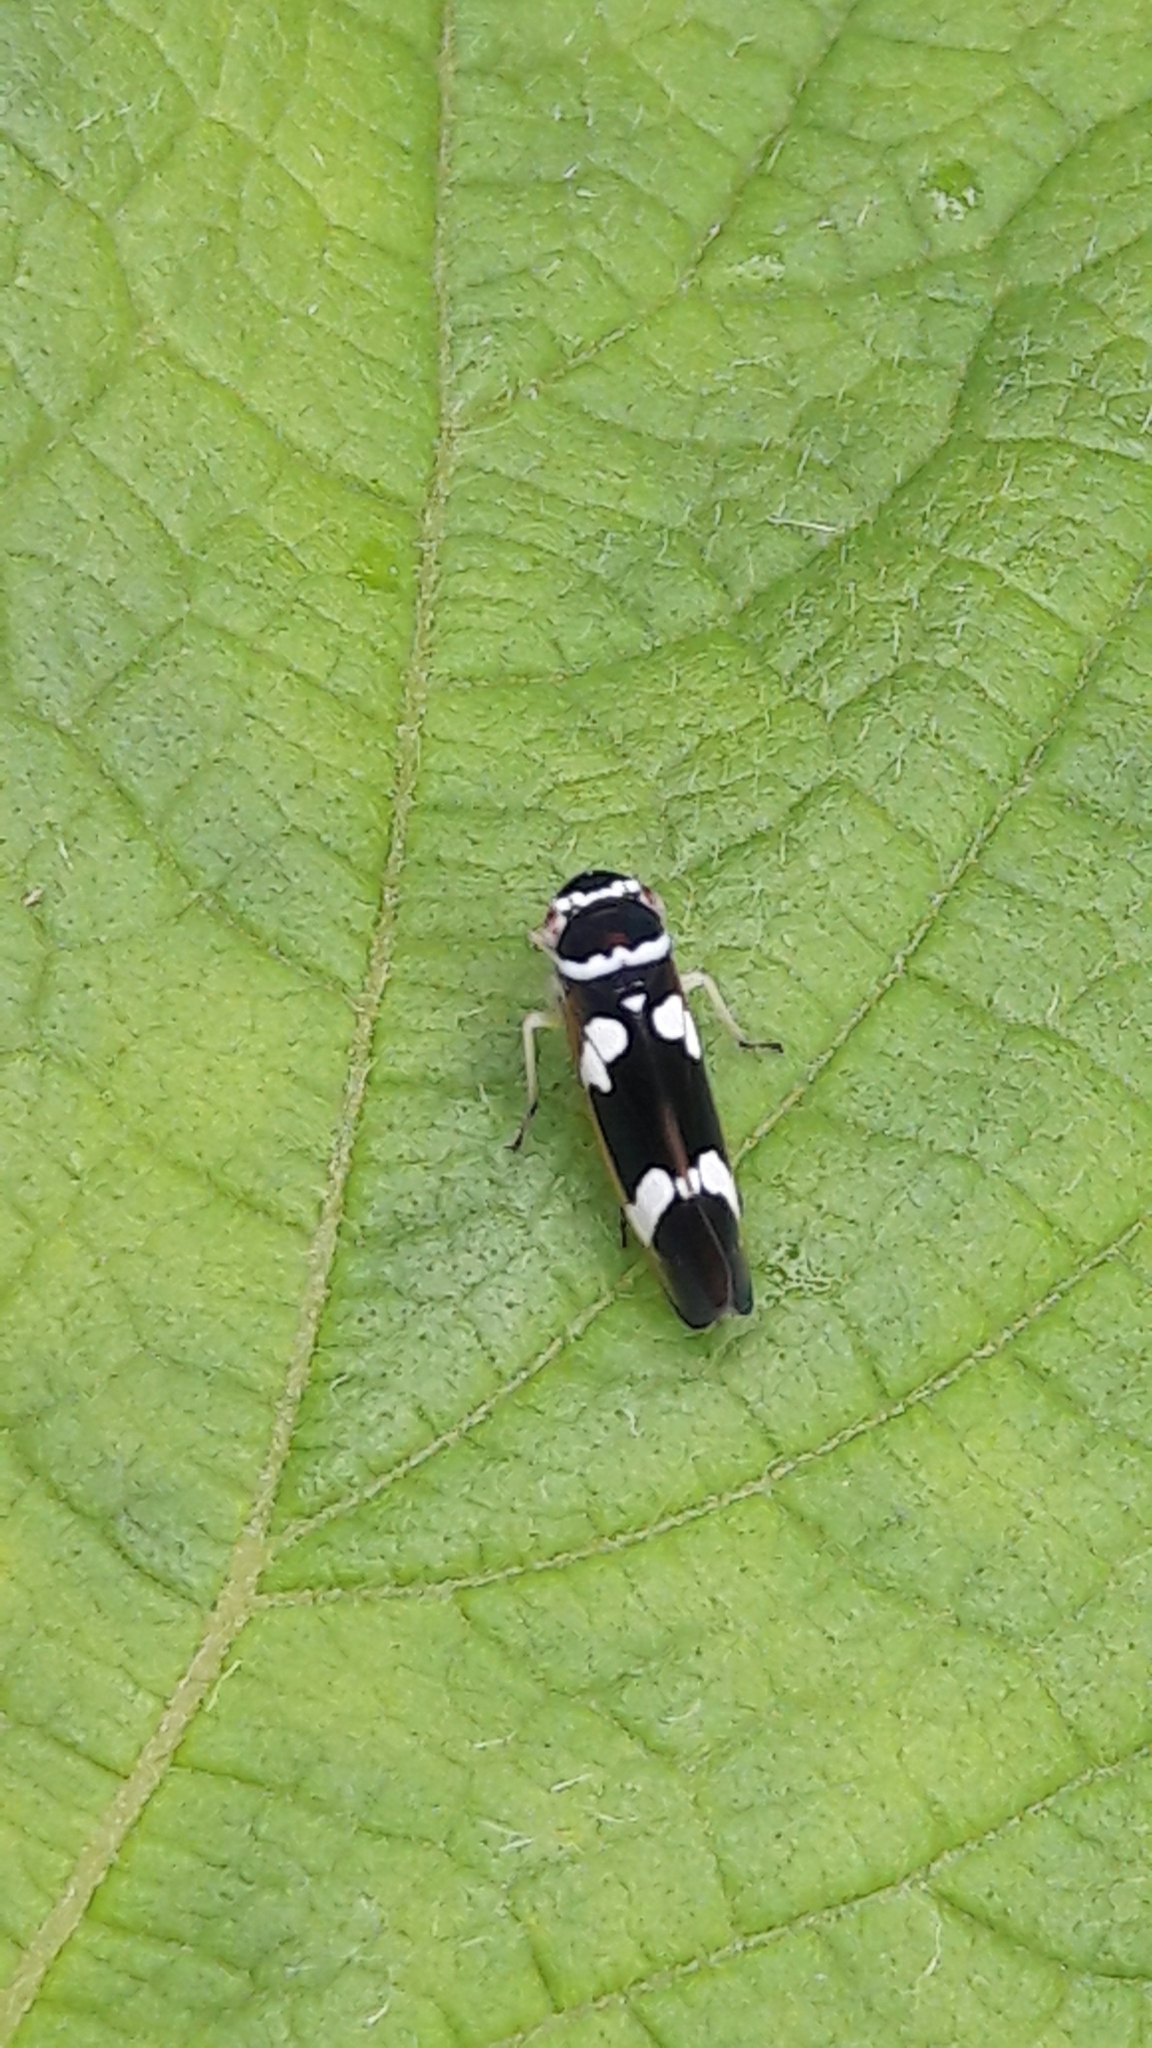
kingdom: Animalia
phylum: Arthropoda
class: Insecta
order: Hemiptera
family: Cicadellidae
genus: Macugonalia
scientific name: Macugonalia leucomelas
